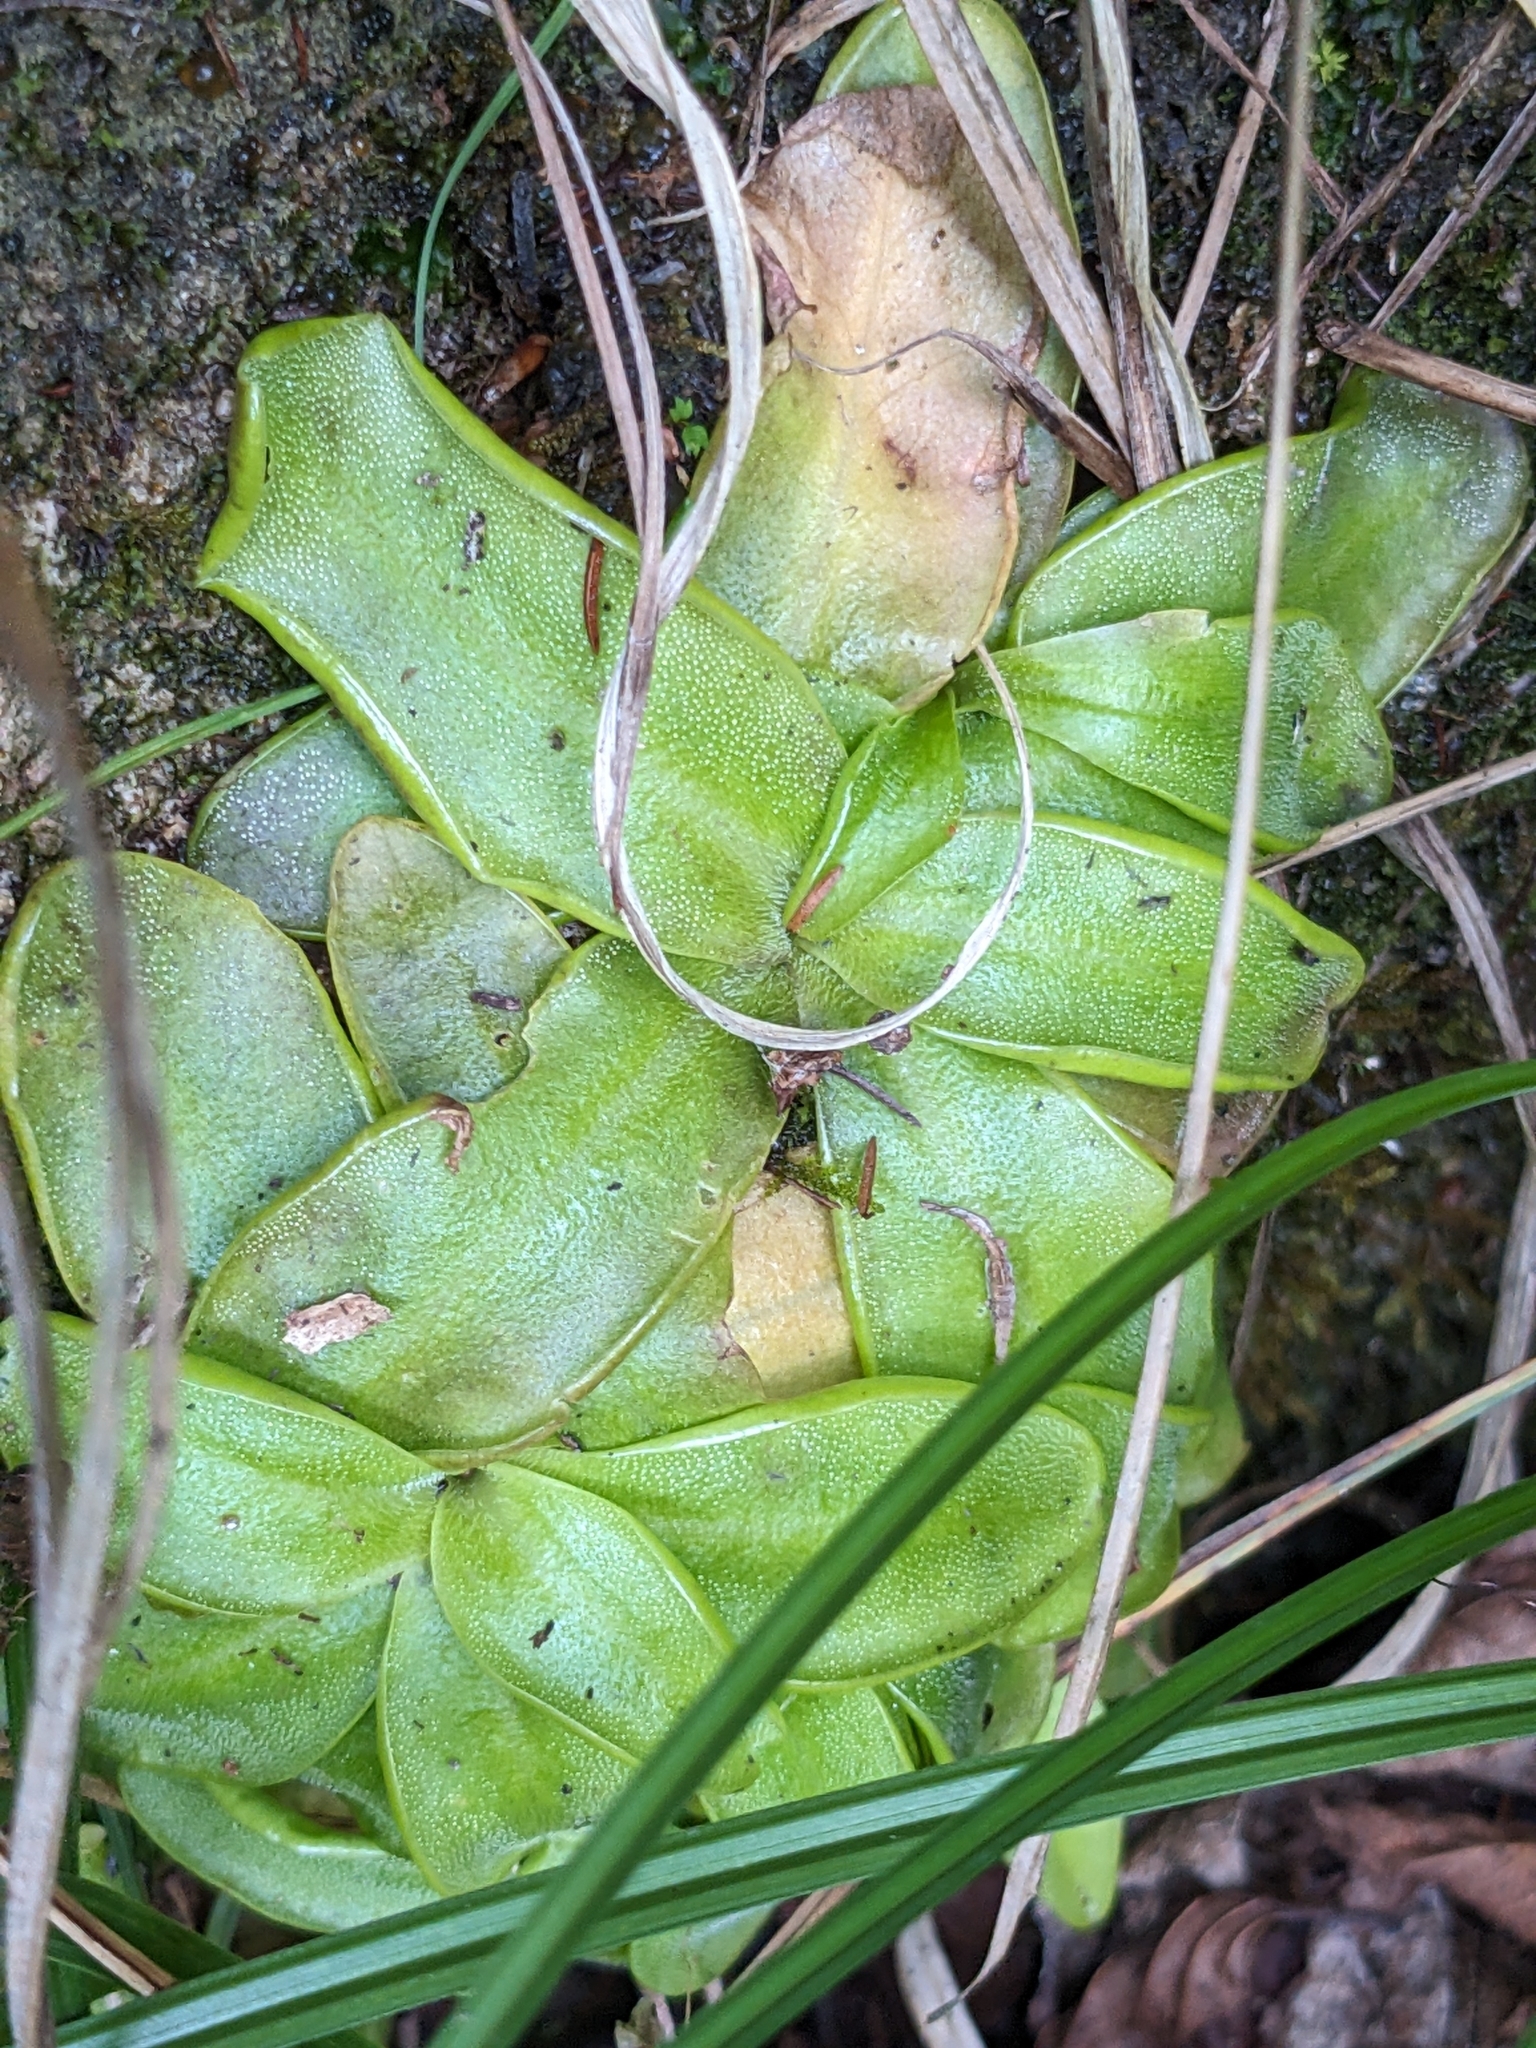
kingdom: Plantae
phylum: Tracheophyta
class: Magnoliopsida
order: Lamiales
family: Lentibulariaceae
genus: Pinguicula
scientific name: Pinguicula alpina
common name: Alpine butterwort
